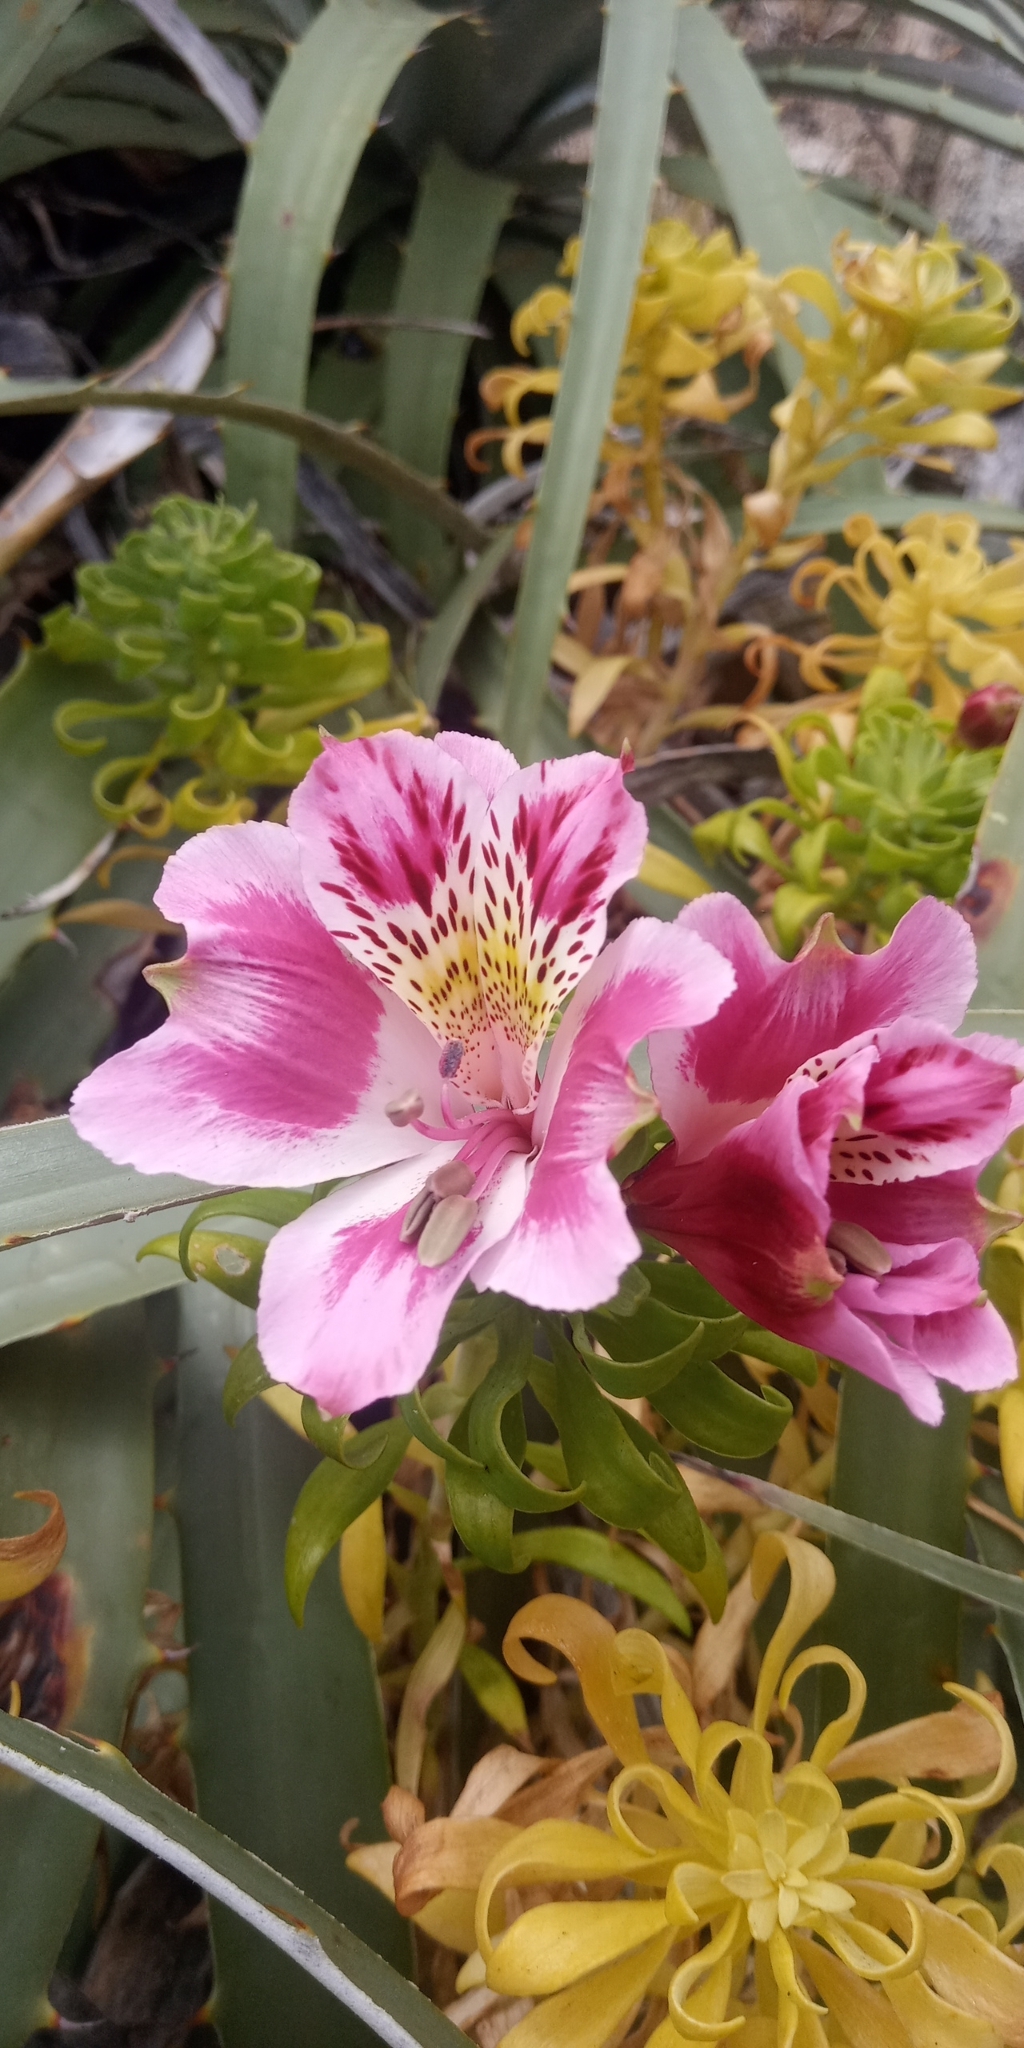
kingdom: Plantae
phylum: Tracheophyta
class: Liliopsida
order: Liliales
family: Alstroemeriaceae
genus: Alstroemeria
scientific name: Alstroemeria pelegrina
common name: Peruvian-lily
